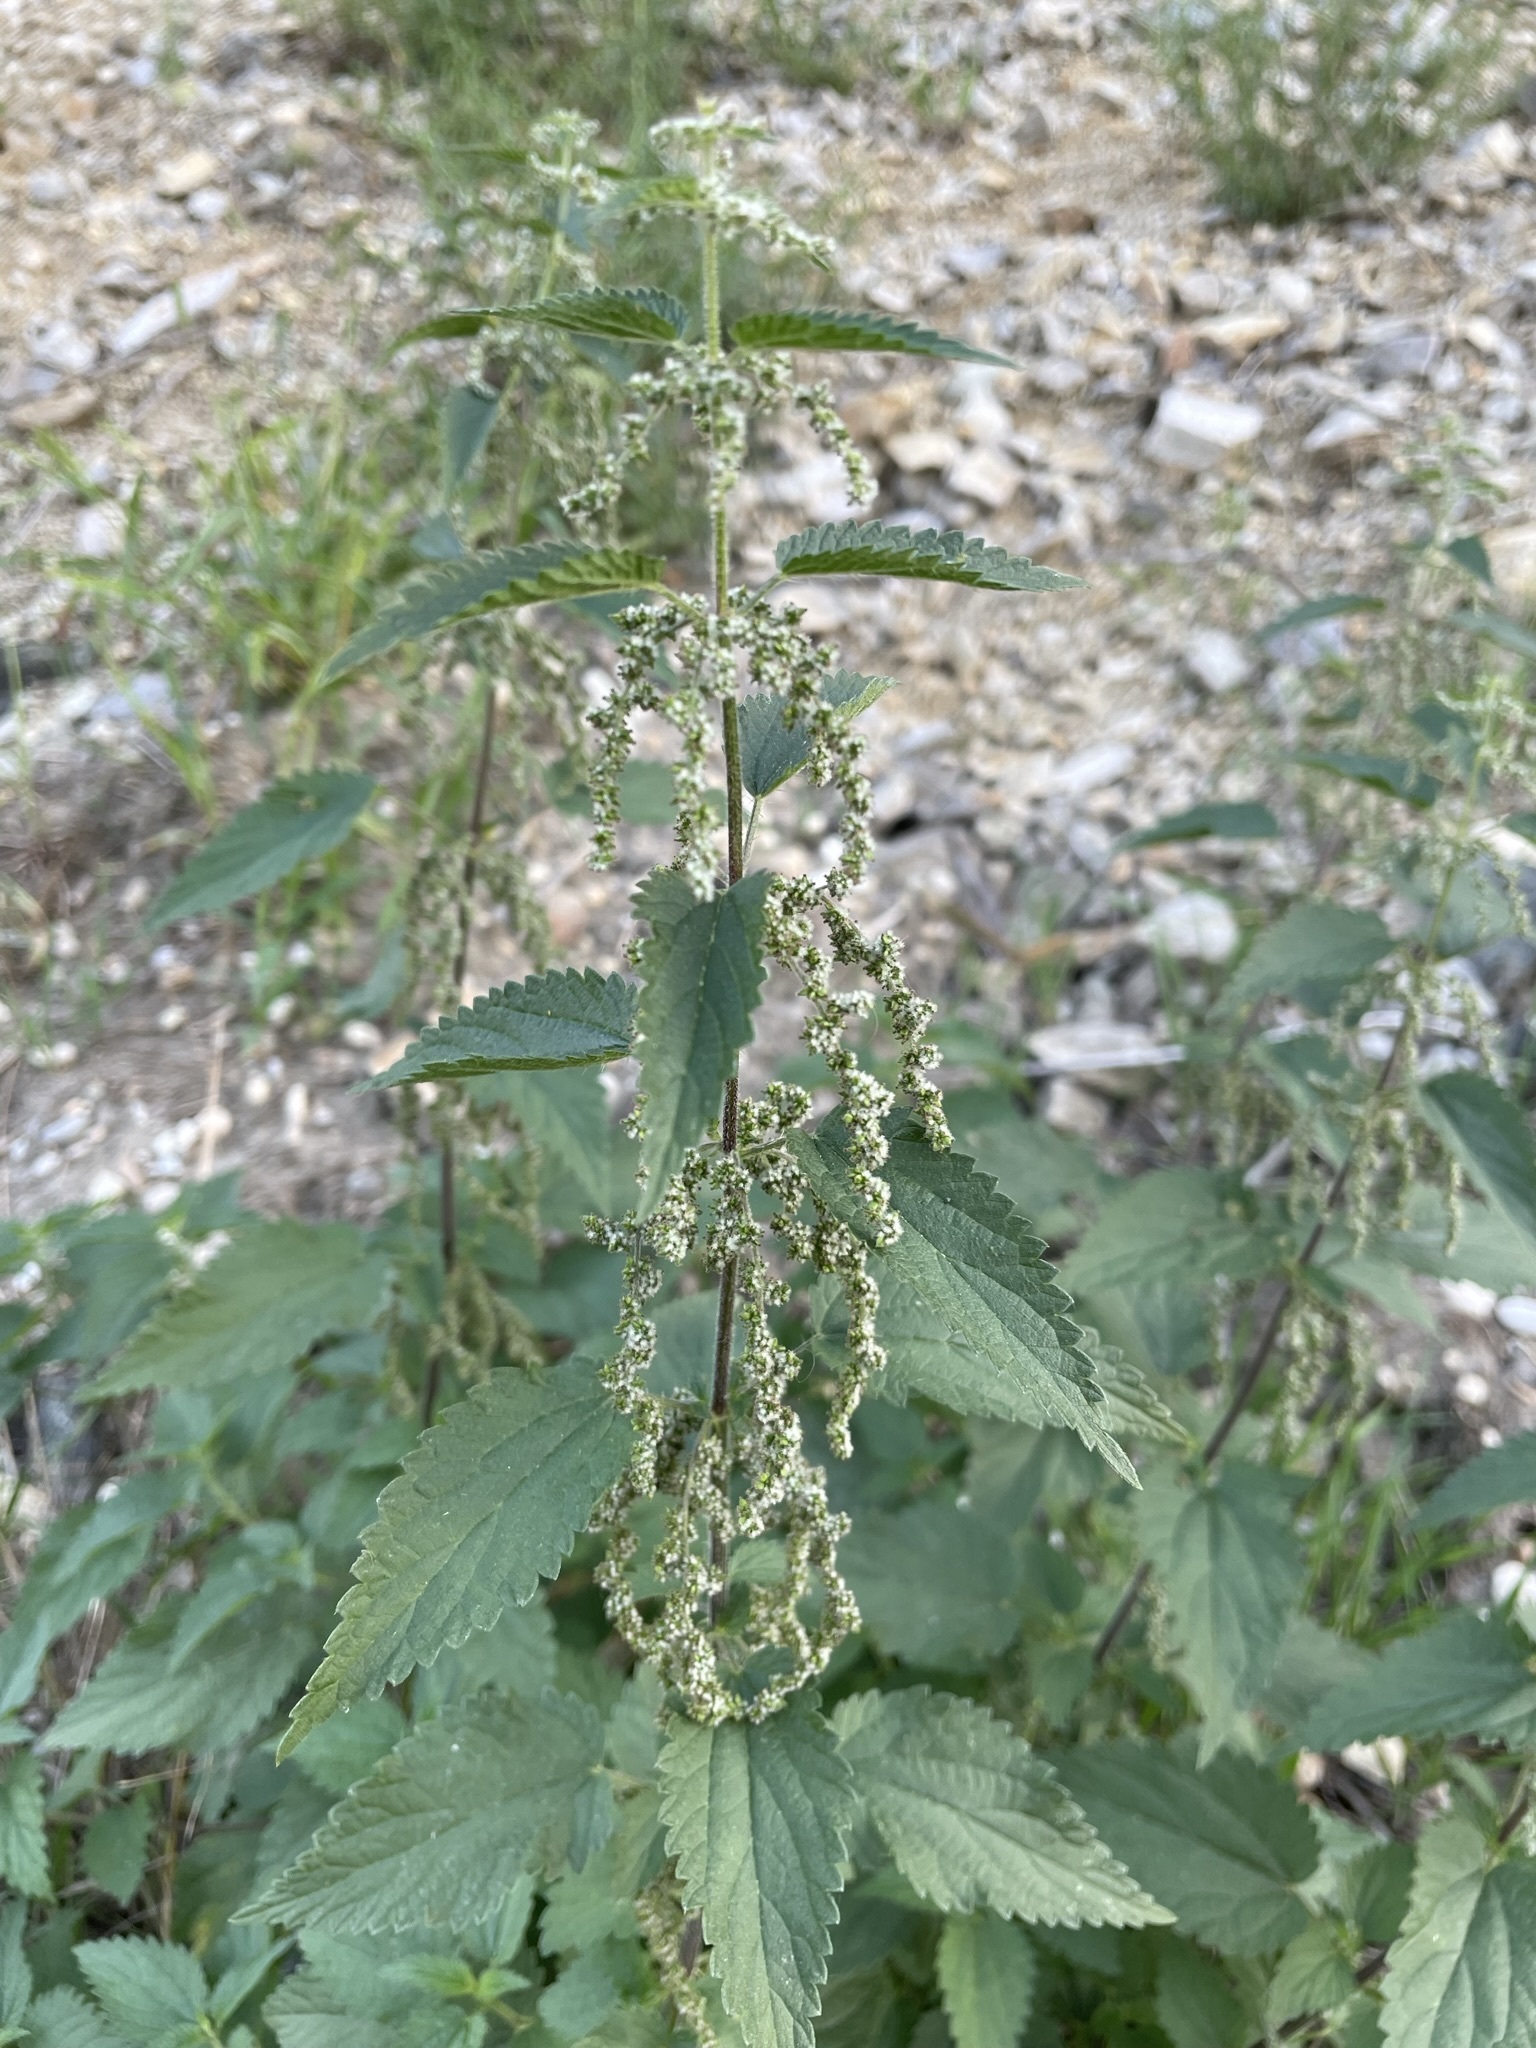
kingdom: Plantae
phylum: Tracheophyta
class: Magnoliopsida
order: Rosales
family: Urticaceae
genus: Urtica
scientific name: Urtica dioica
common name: Common nettle
